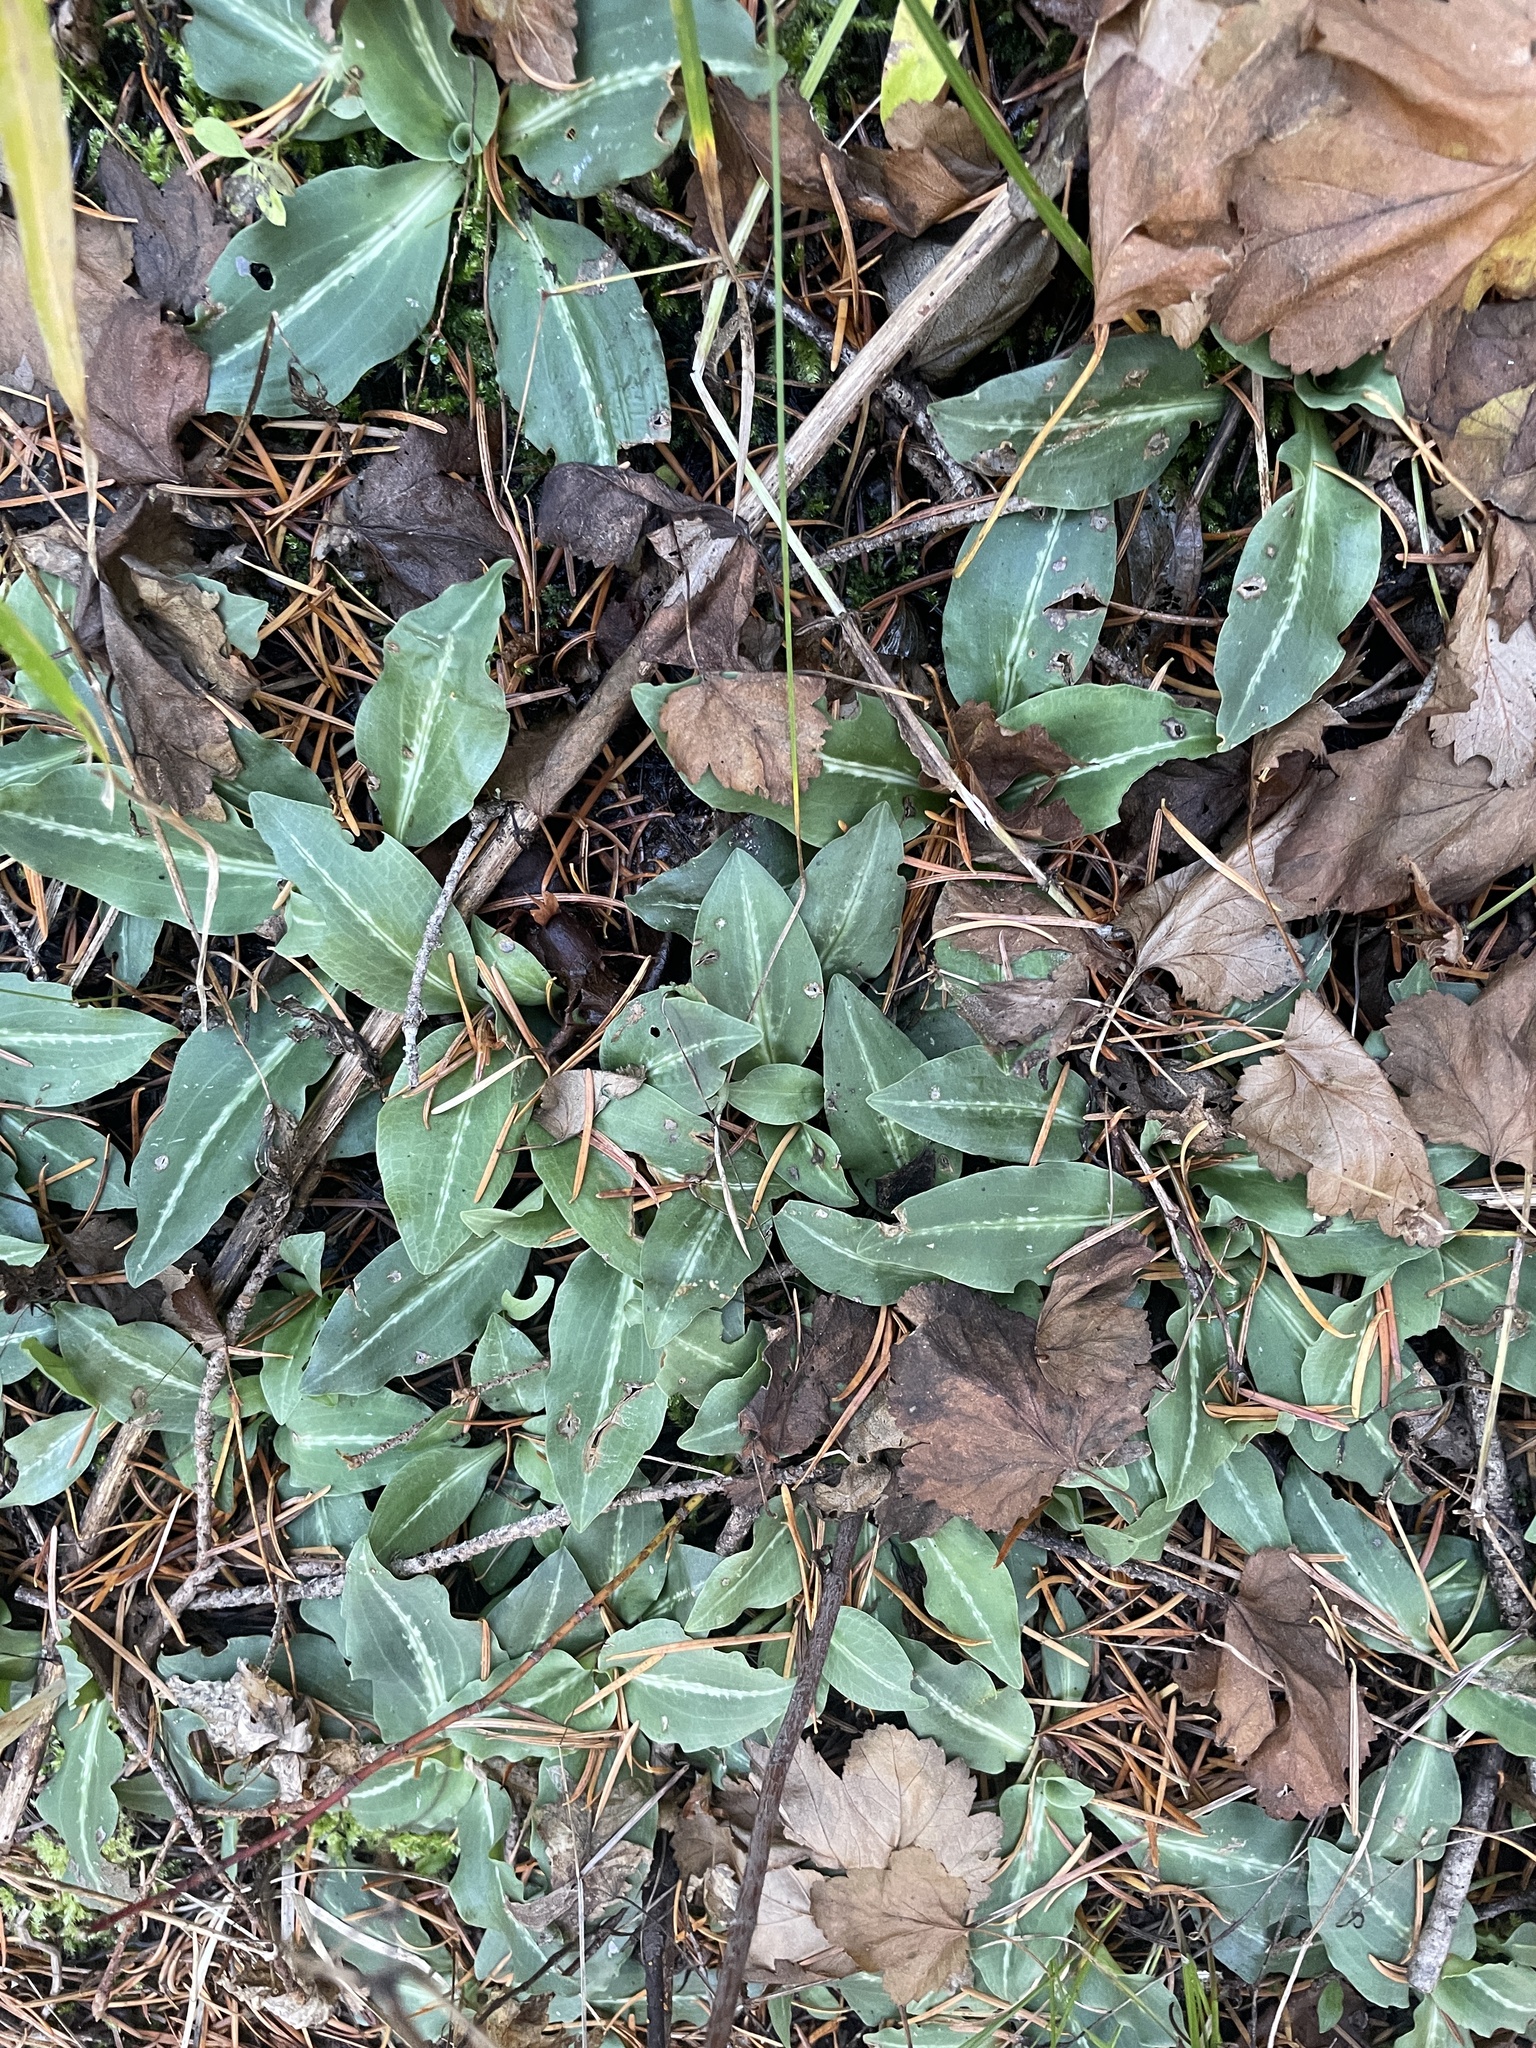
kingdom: Plantae
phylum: Tracheophyta
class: Liliopsida
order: Asparagales
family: Orchidaceae
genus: Goodyera
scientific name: Goodyera oblongifolia
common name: Giant rattlesnake-plantain
